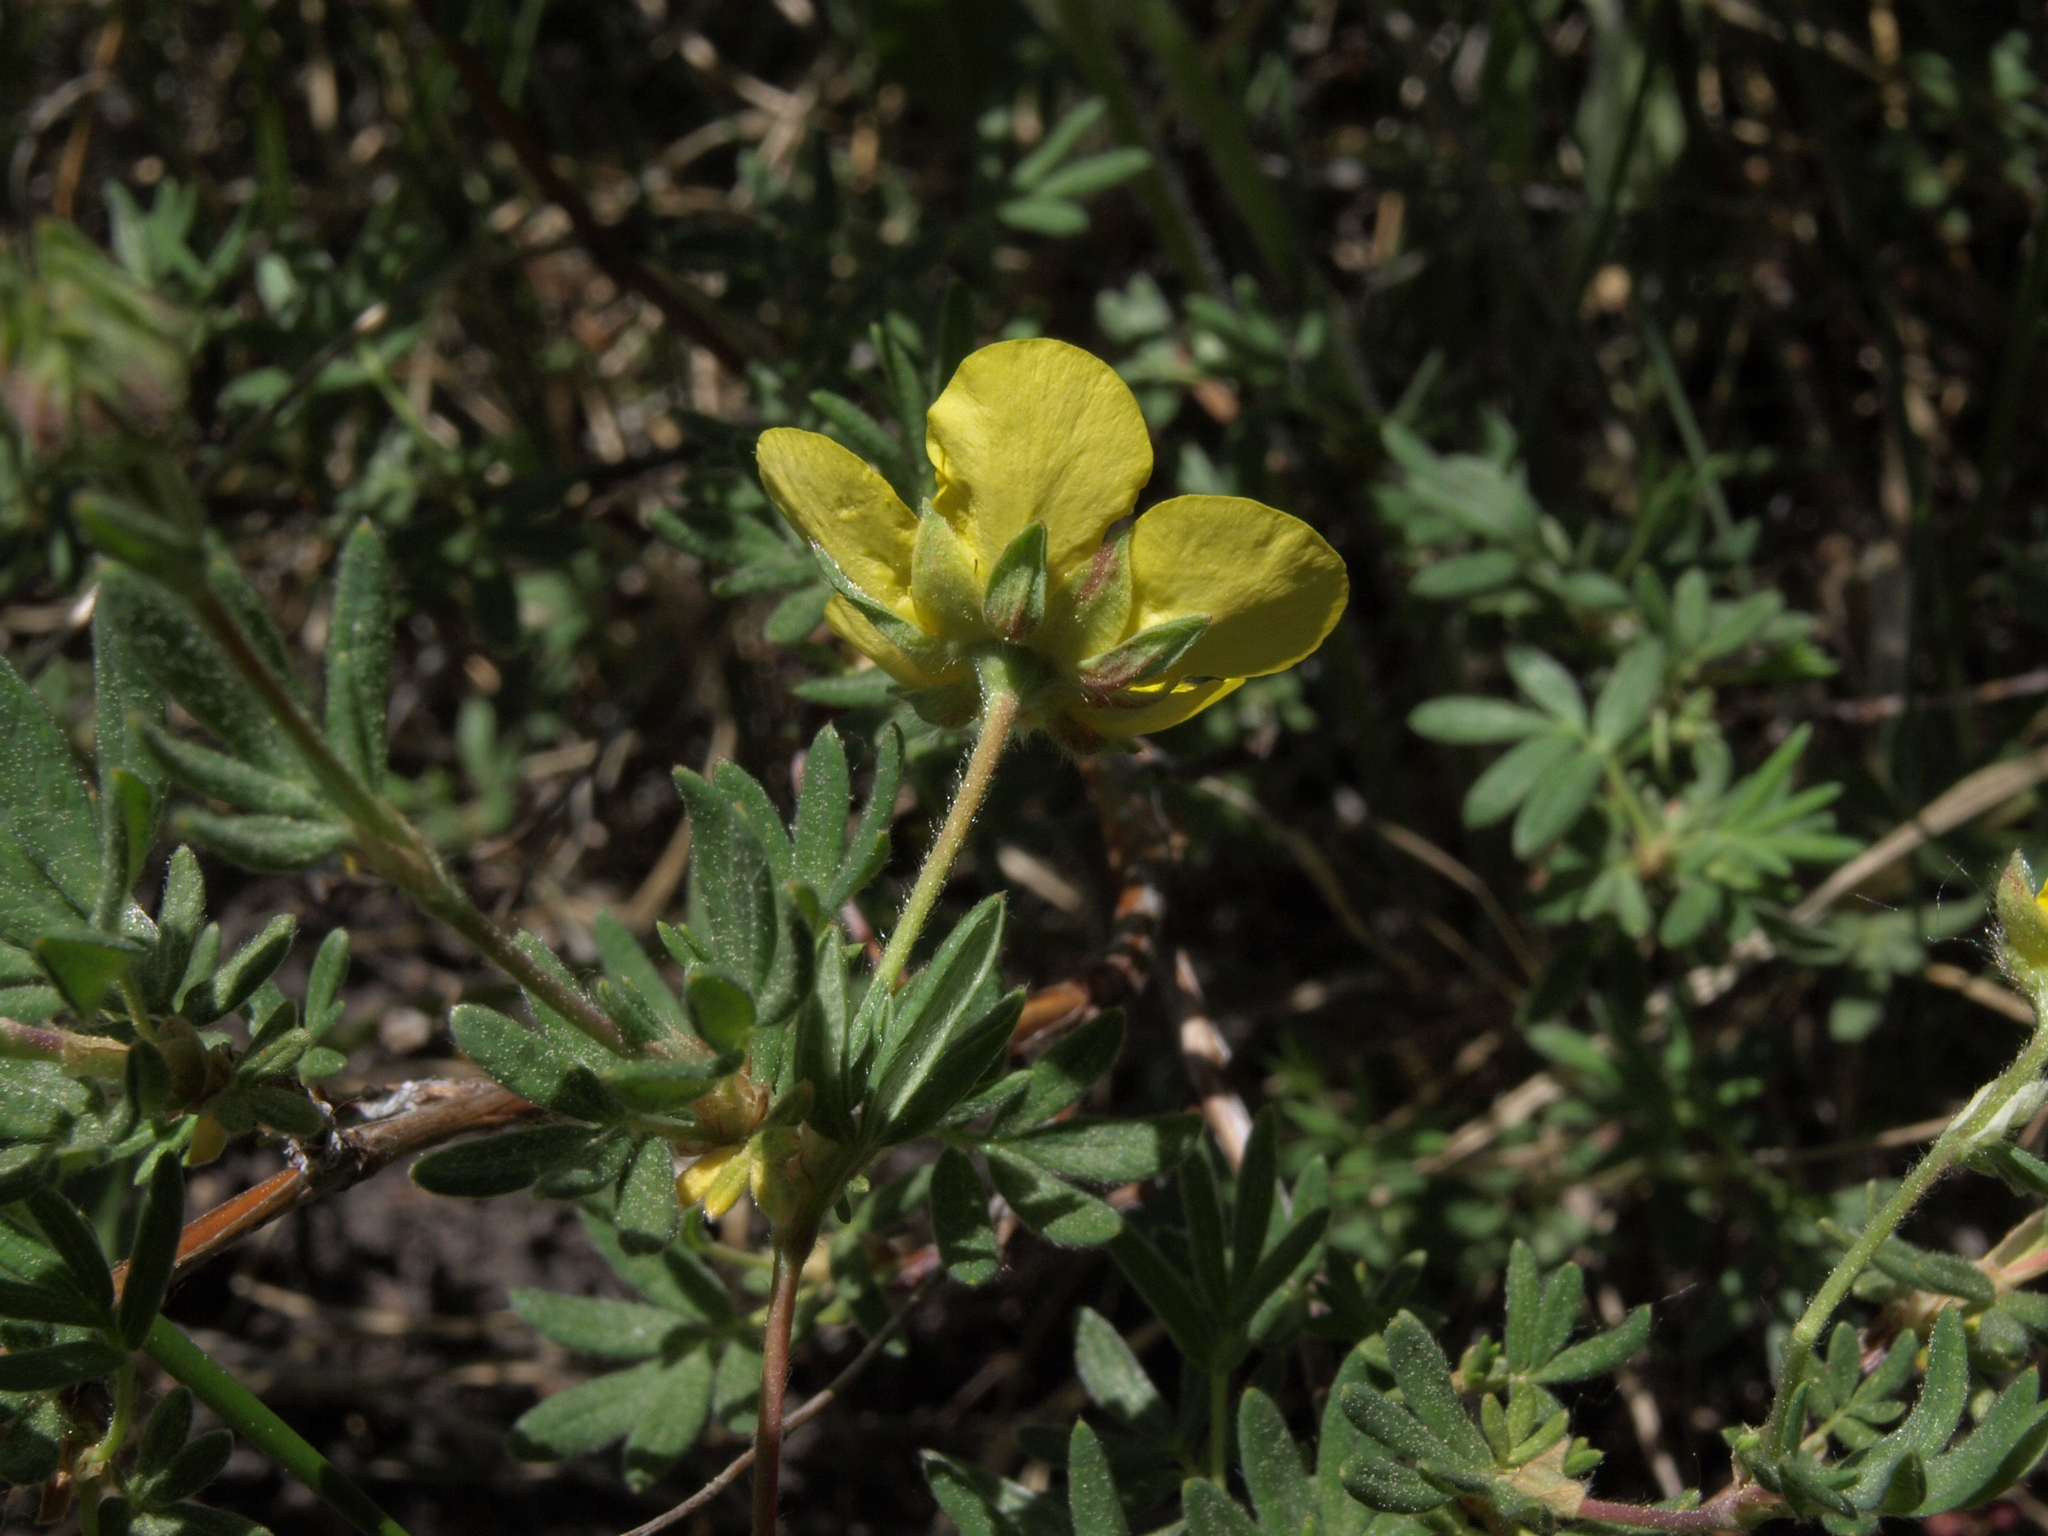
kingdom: Plantae
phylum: Tracheophyta
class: Magnoliopsida
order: Rosales
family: Rosaceae
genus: Dasiphora
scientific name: Dasiphora fruticosa
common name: Shrubby cinquefoil
